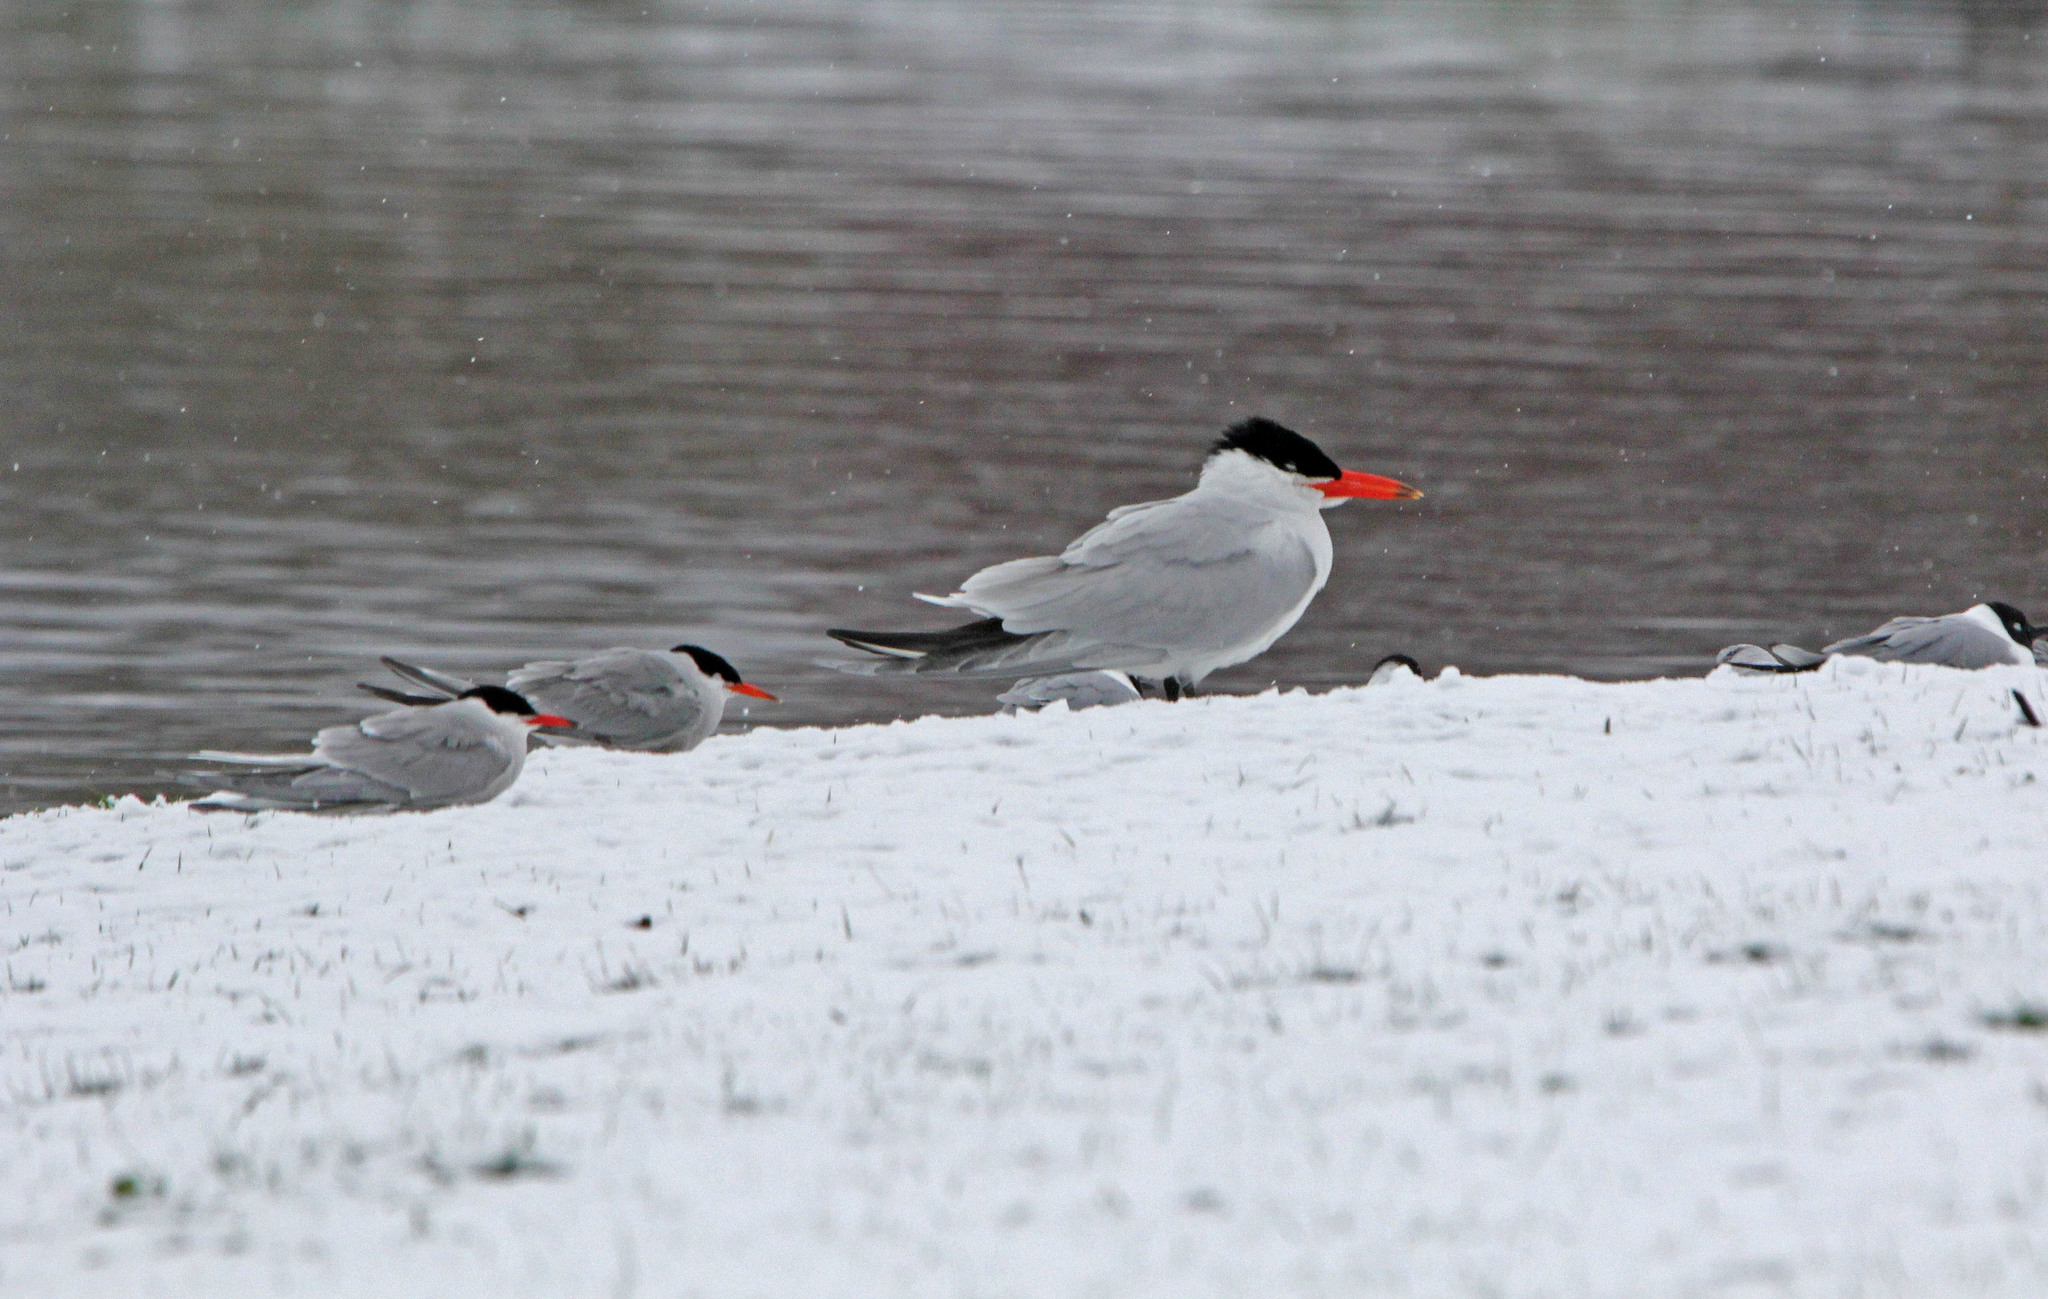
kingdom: Animalia
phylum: Chordata
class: Aves
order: Charadriiformes
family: Laridae
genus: Hydroprogne
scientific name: Hydroprogne caspia
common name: Caspian tern
